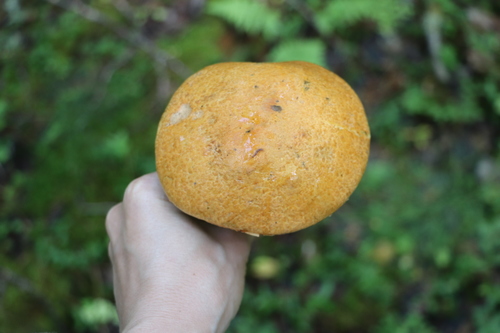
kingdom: Fungi
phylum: Basidiomycota
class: Agaricomycetes
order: Boletales
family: Boletaceae
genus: Leccinum
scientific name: Leccinum versipelle
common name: Orange birch bolete
